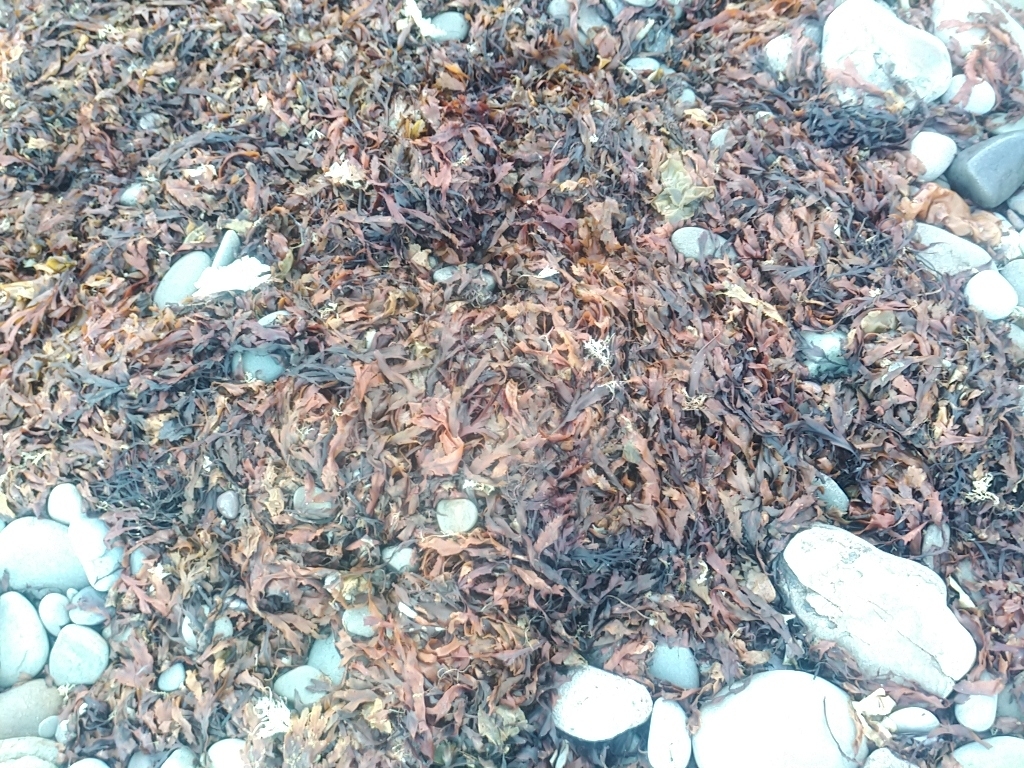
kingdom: Chromista
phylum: Ochrophyta
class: Phaeophyceae
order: Fucales
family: Fucaceae
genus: Fucus
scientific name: Fucus serratus
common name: Toothed wrack
